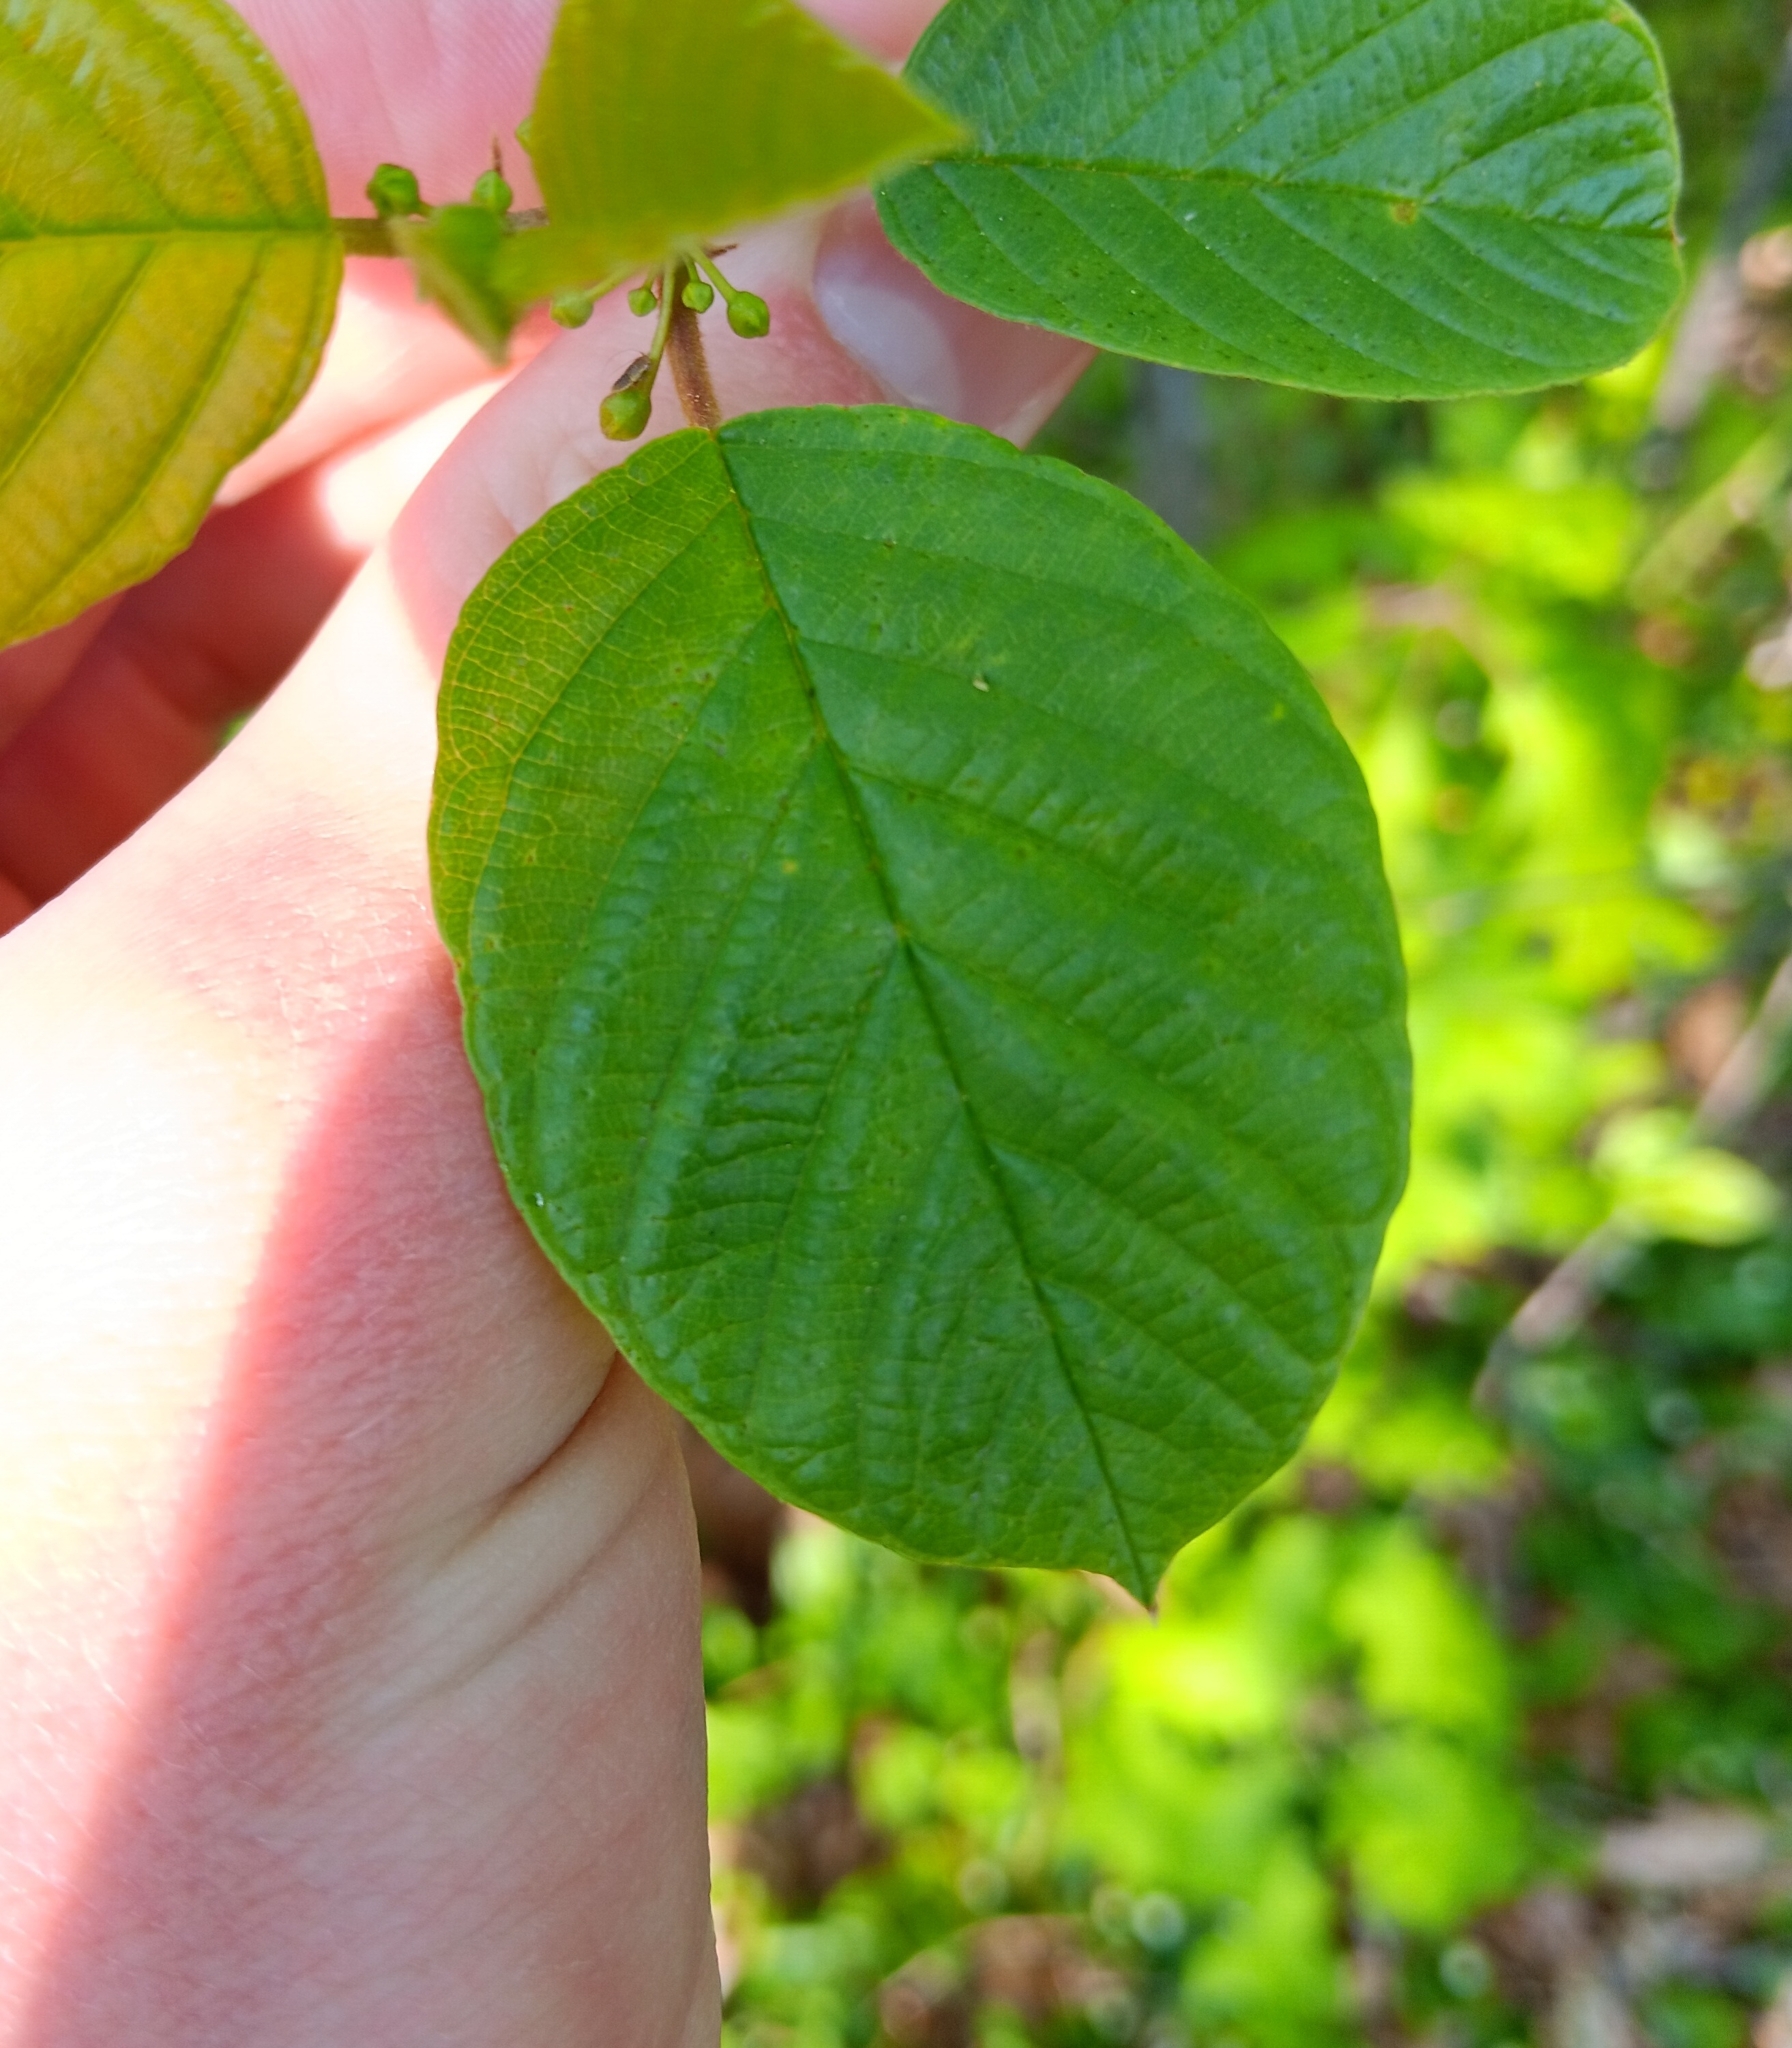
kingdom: Plantae
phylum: Tracheophyta
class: Magnoliopsida
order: Rosales
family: Rhamnaceae
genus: Frangula
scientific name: Frangula alnus
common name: Alder buckthorn
